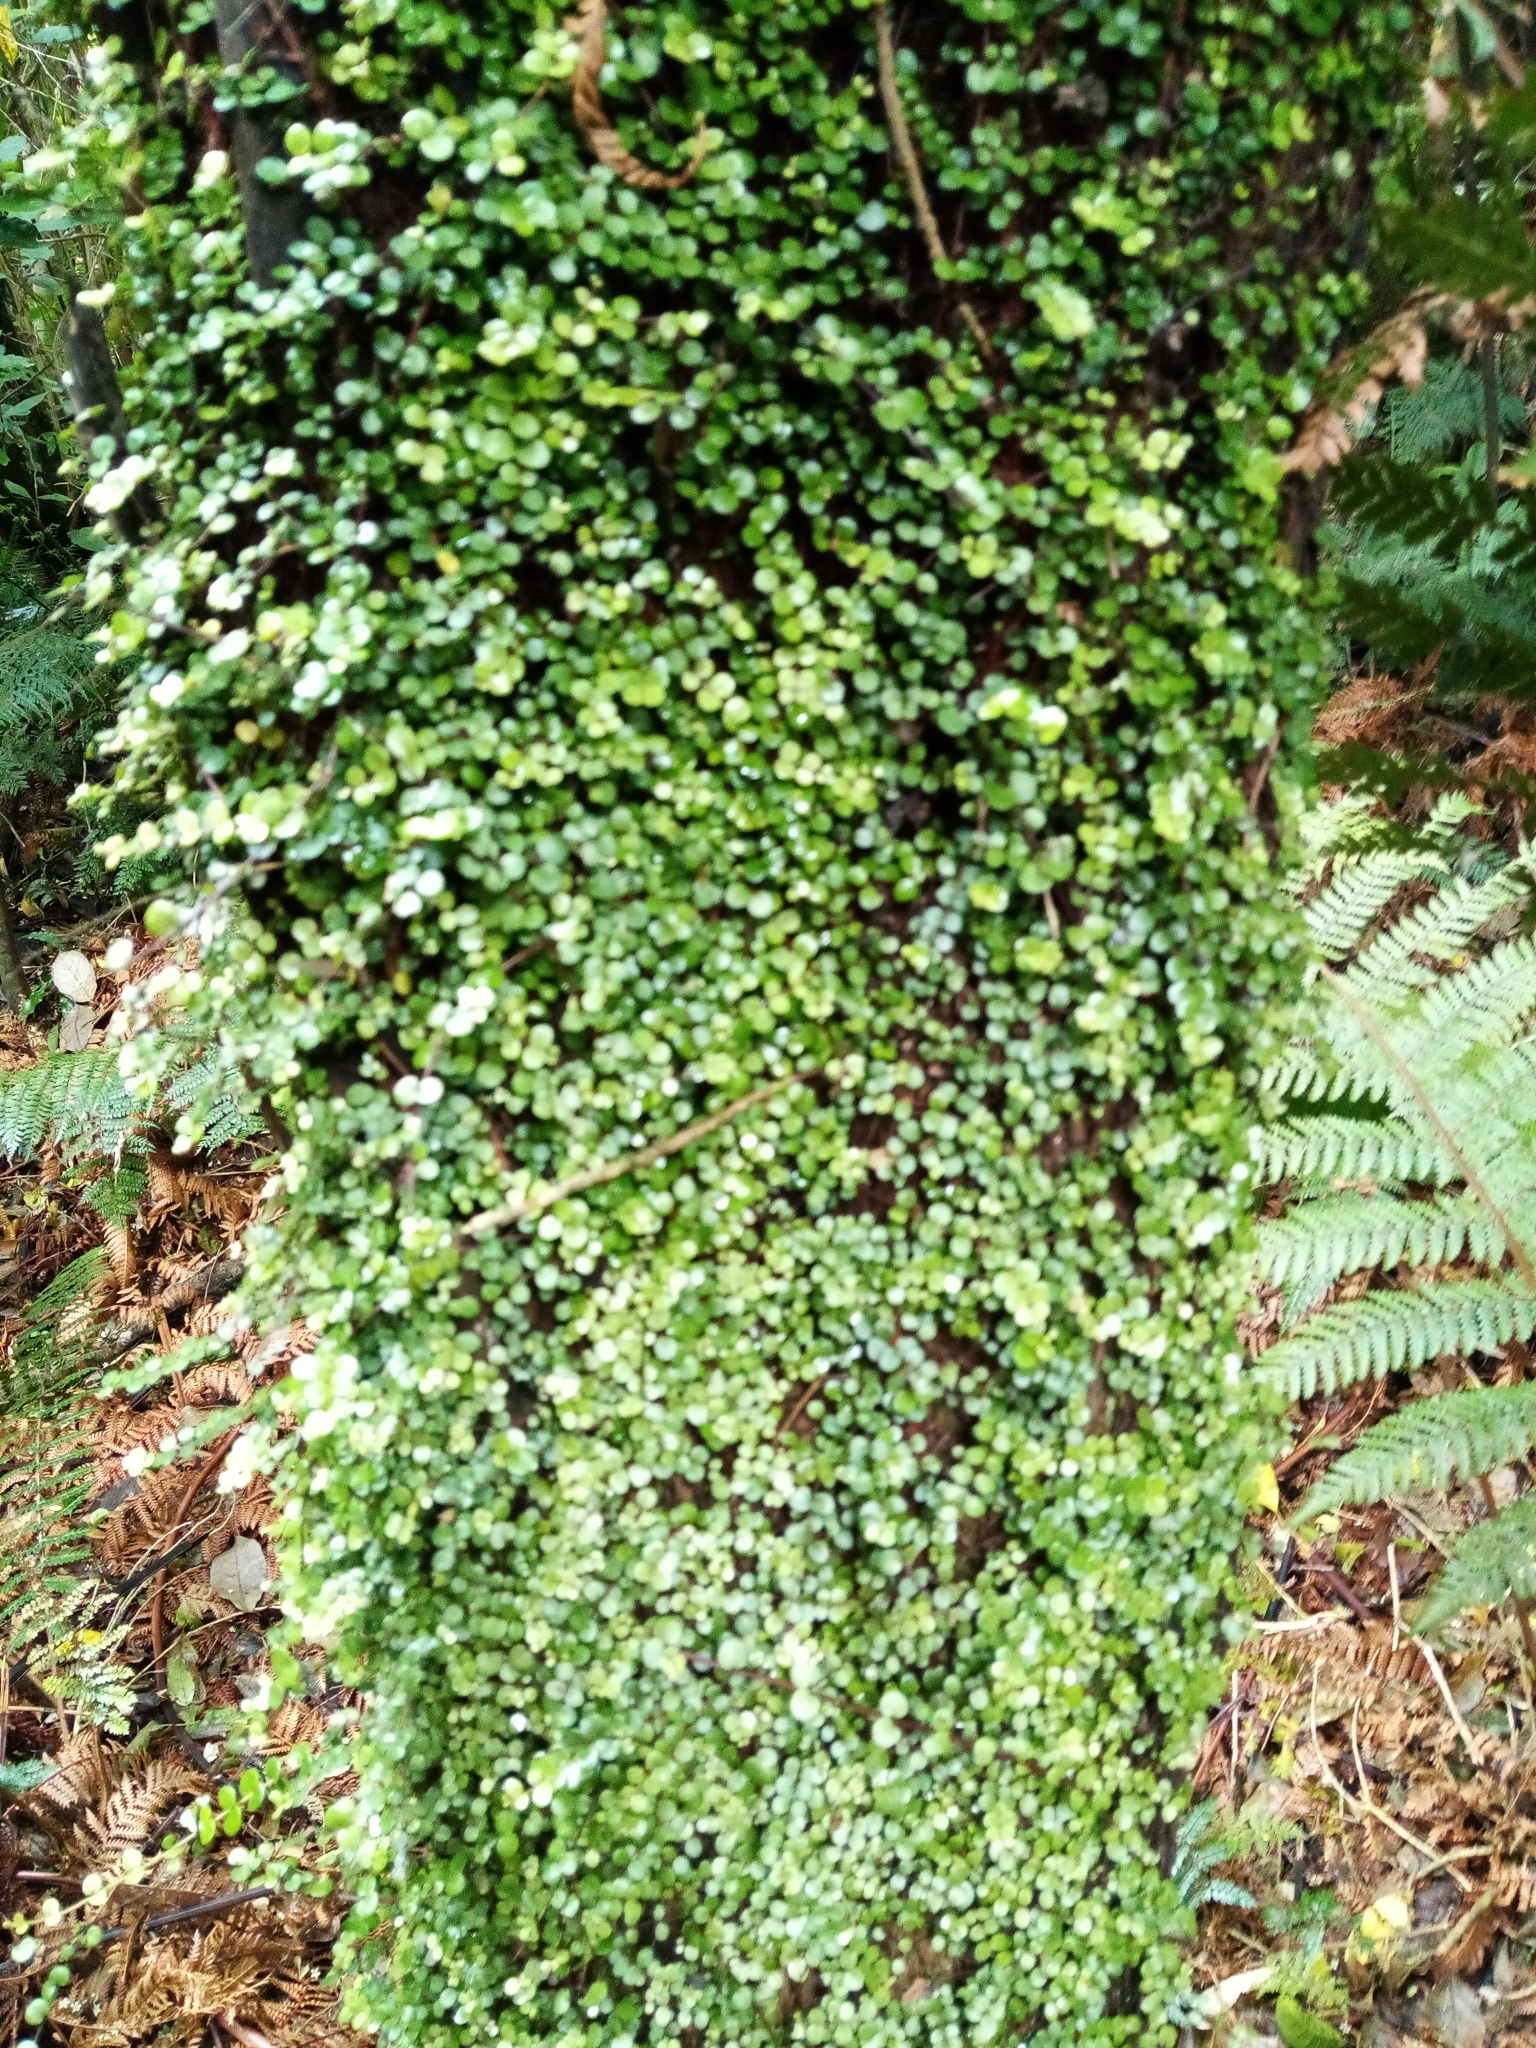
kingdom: Plantae
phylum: Tracheophyta
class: Magnoliopsida
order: Myrtales
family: Myrtaceae
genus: Metrosideros
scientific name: Metrosideros perforata
